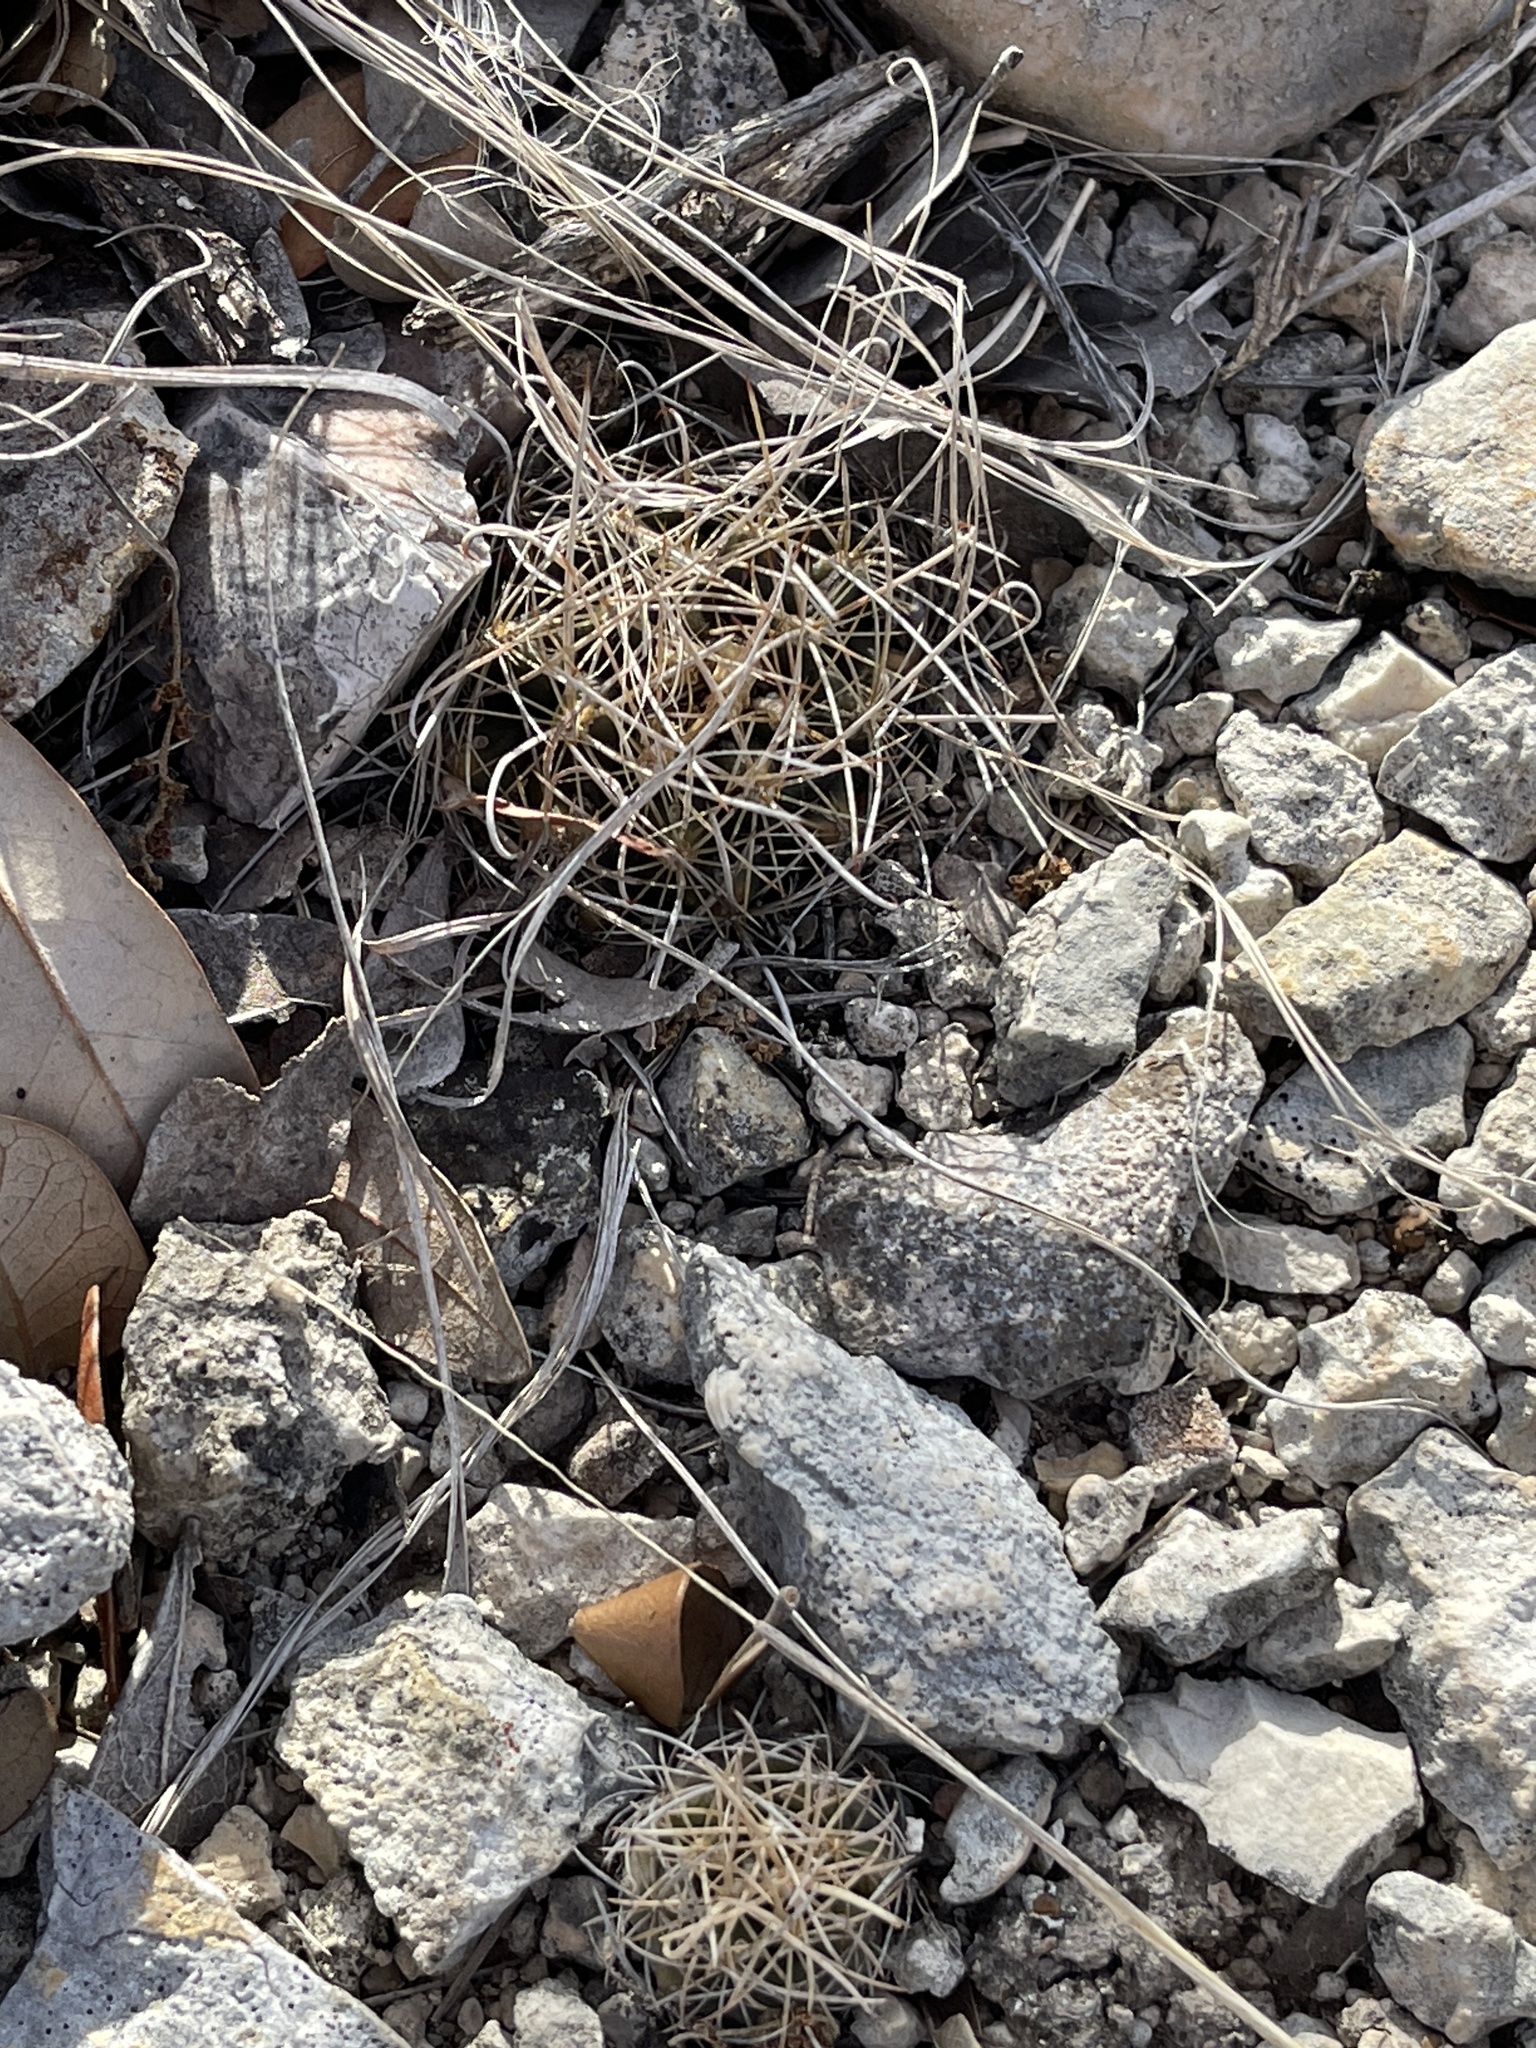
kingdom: Plantae
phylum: Tracheophyta
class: Magnoliopsida
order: Caryophyllales
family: Cactaceae
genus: Sclerocactus
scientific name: Sclerocactus brevihamatus
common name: Engelmann's fishhook cactus
